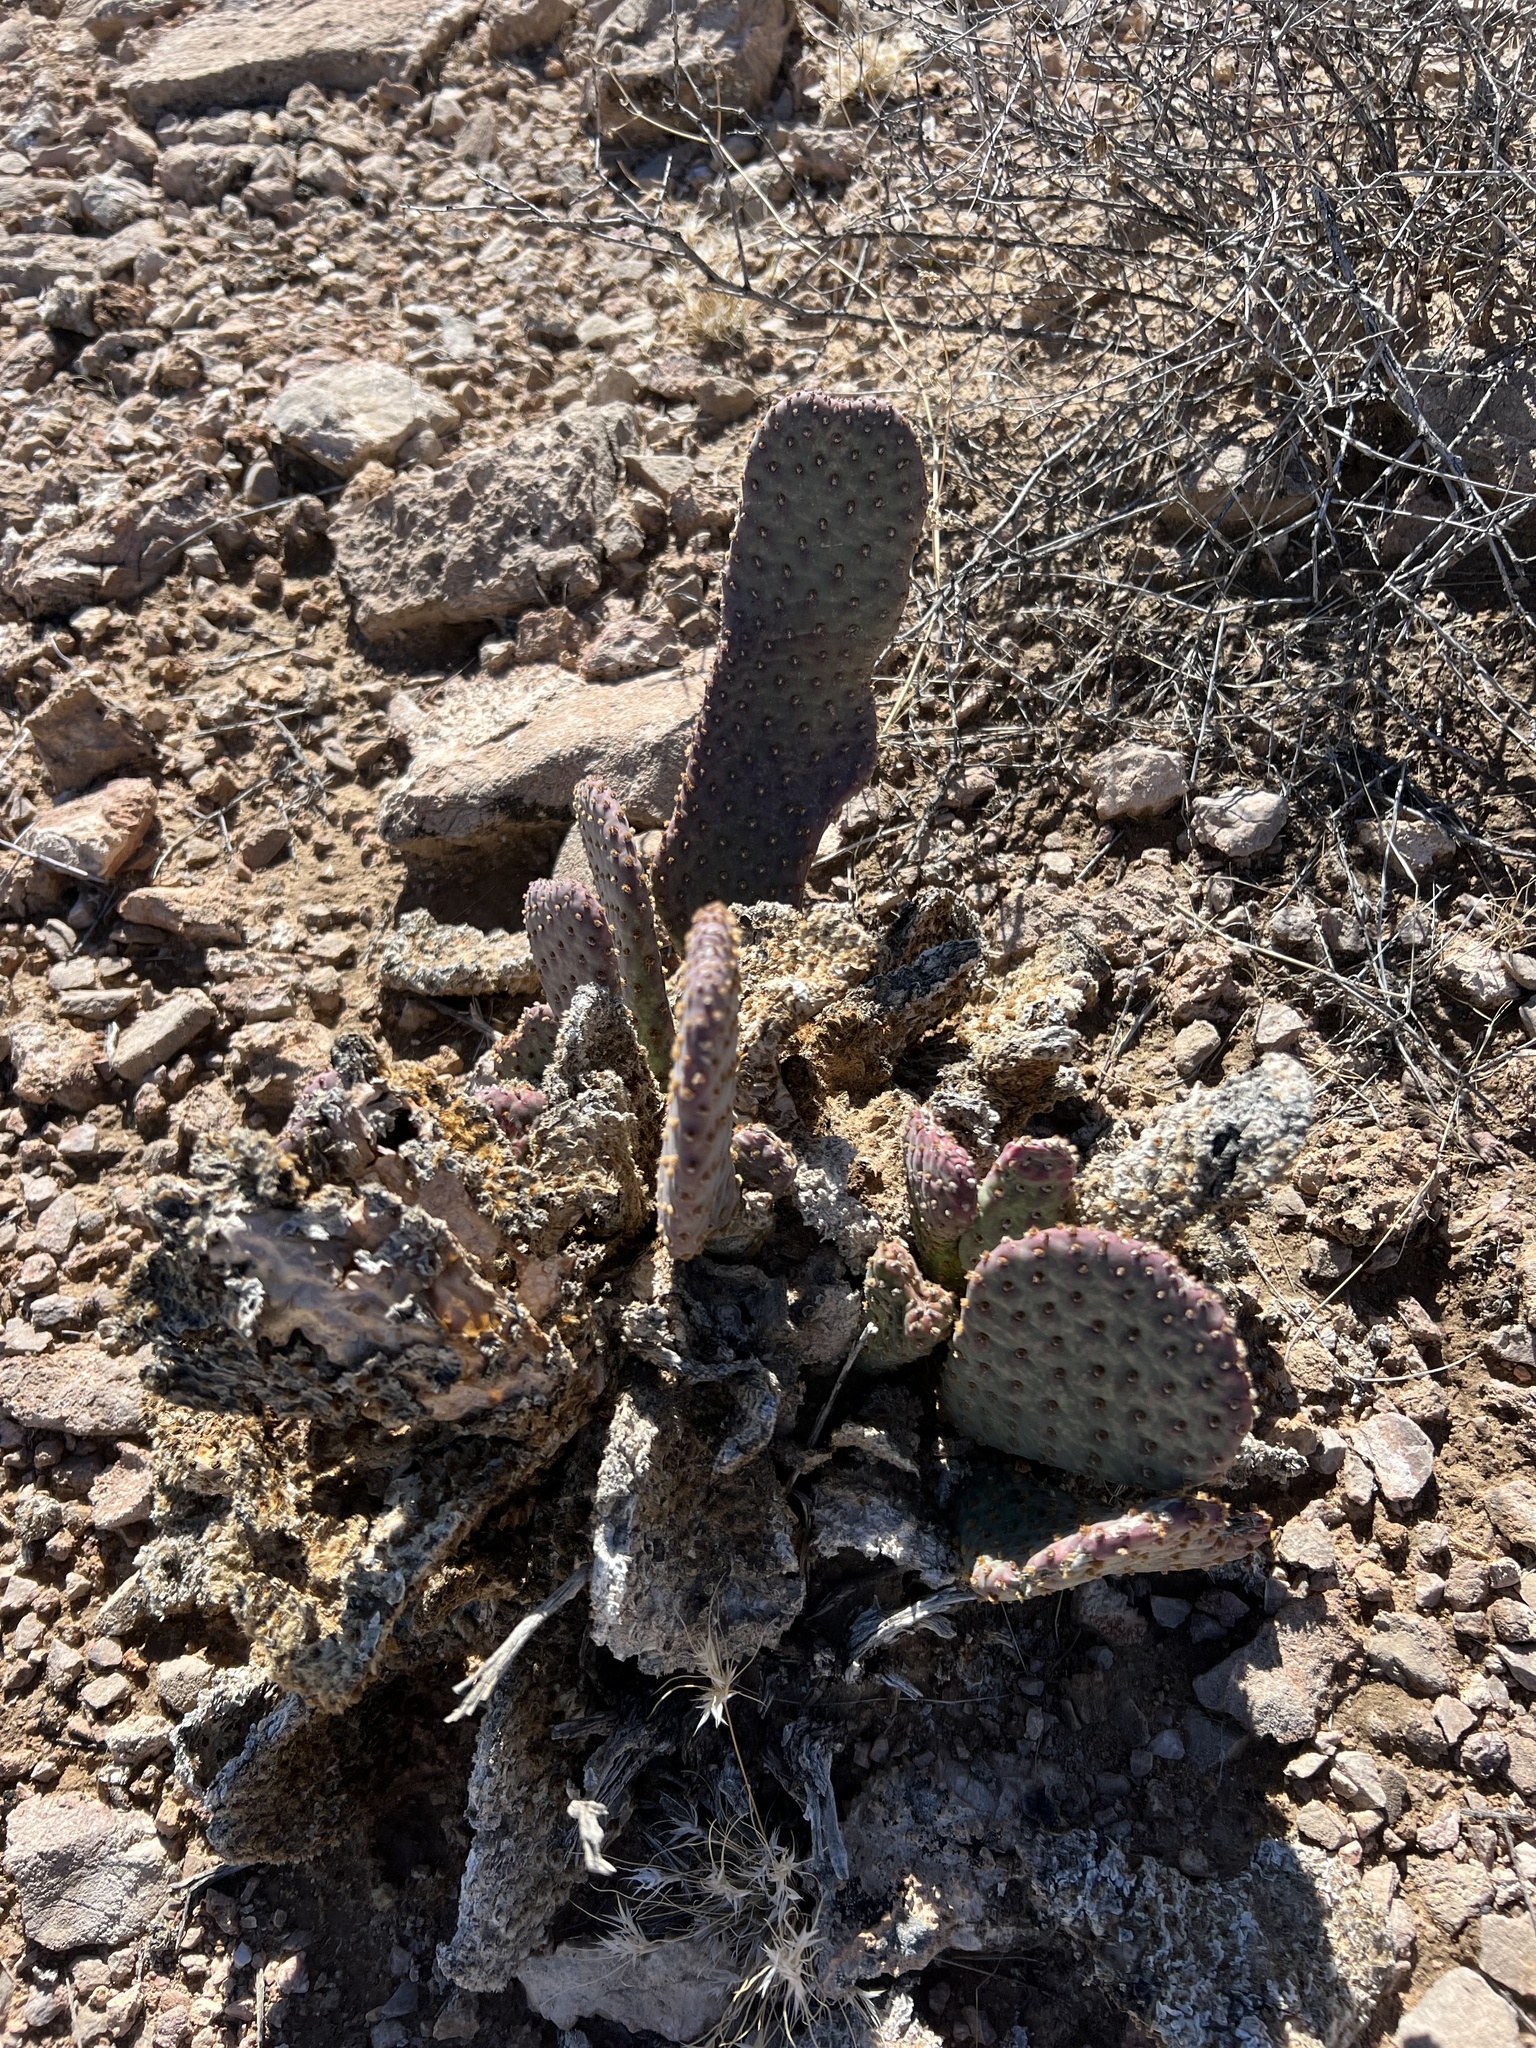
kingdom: Plantae
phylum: Tracheophyta
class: Magnoliopsida
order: Caryophyllales
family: Cactaceae
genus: Opuntia
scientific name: Opuntia basilaris
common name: Beavertail prickly-pear
